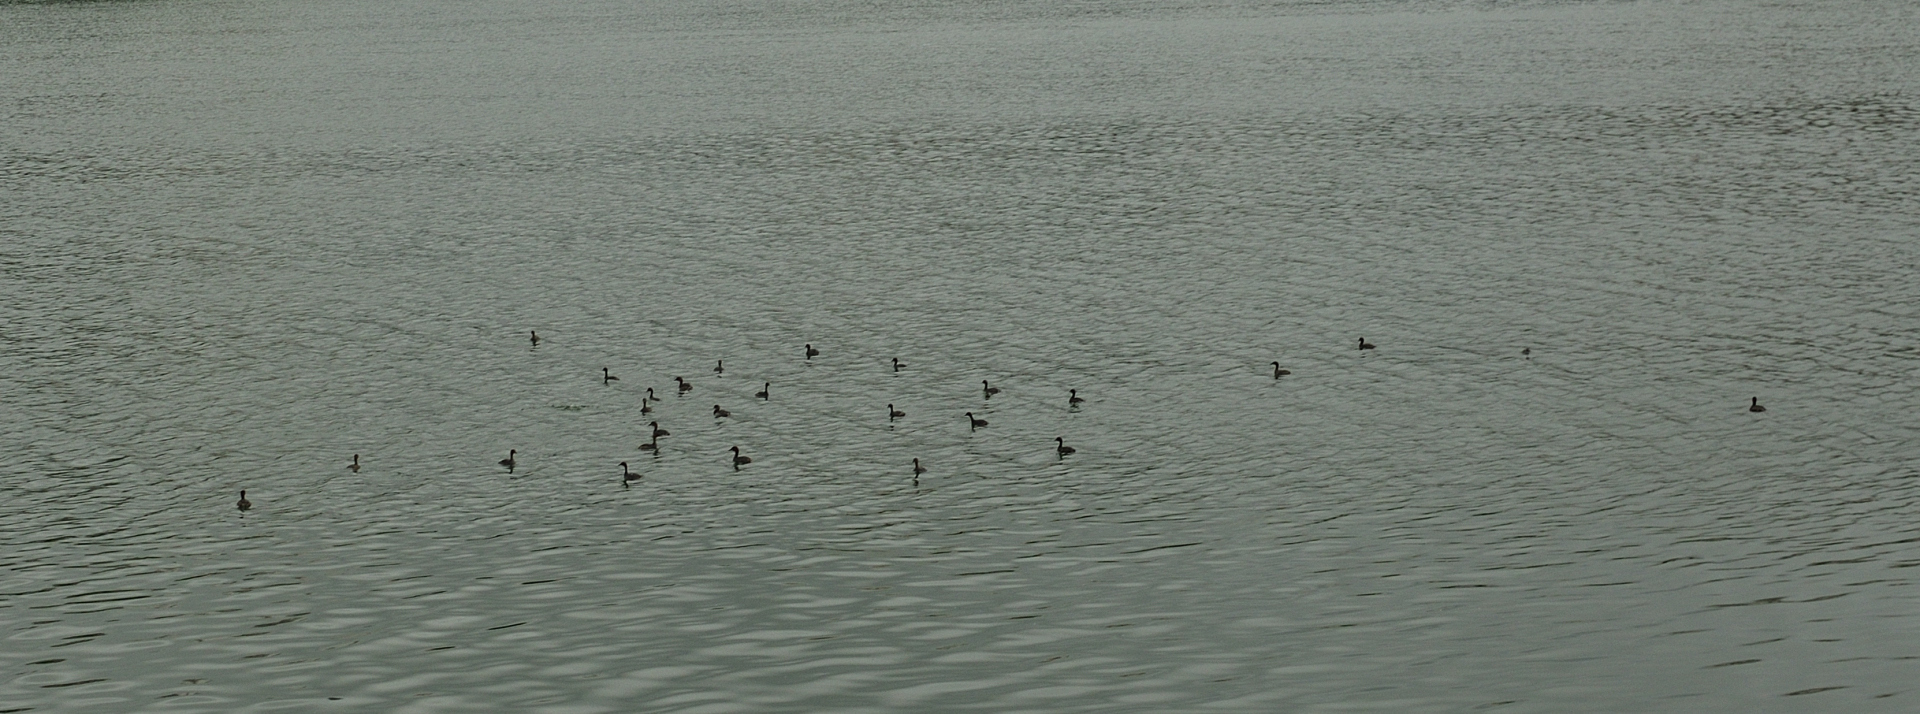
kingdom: Animalia
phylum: Chordata
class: Aves
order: Podicipediformes
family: Podicipedidae
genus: Tachybaptus
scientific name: Tachybaptus ruficollis
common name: Little grebe
